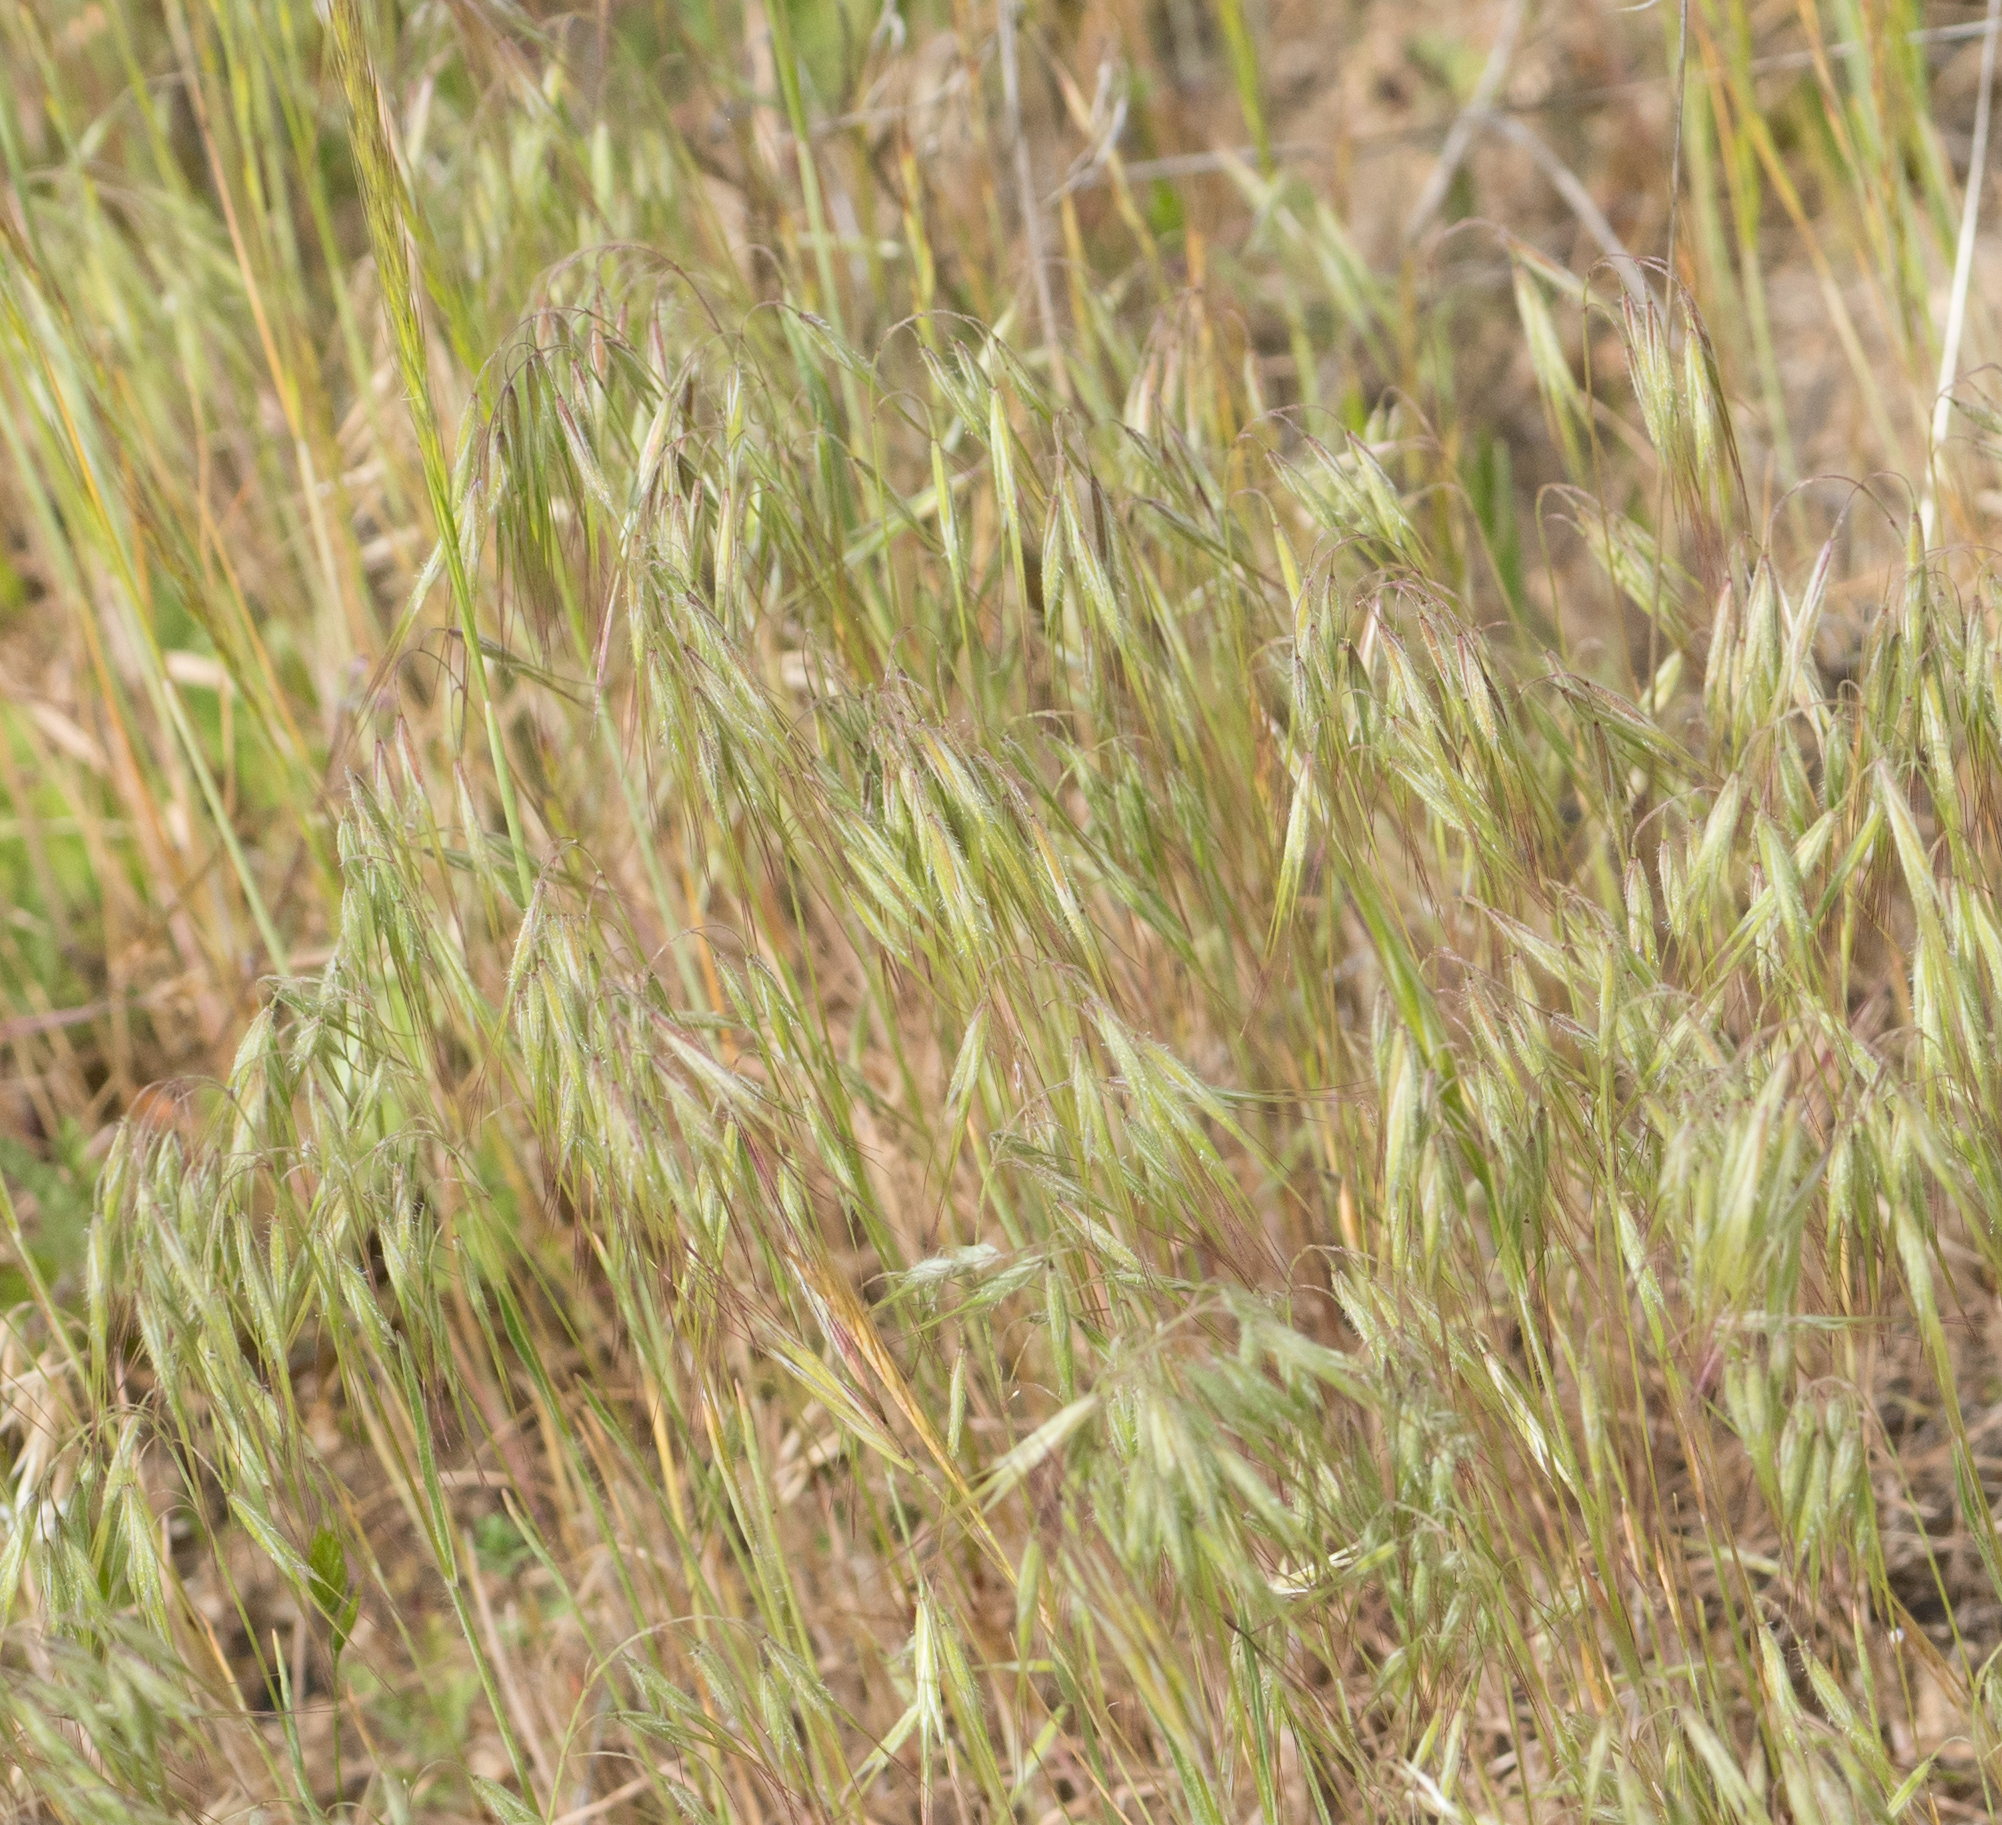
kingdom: Plantae
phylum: Tracheophyta
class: Liliopsida
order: Poales
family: Poaceae
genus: Bromus
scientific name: Bromus tectorum
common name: Cheatgrass
